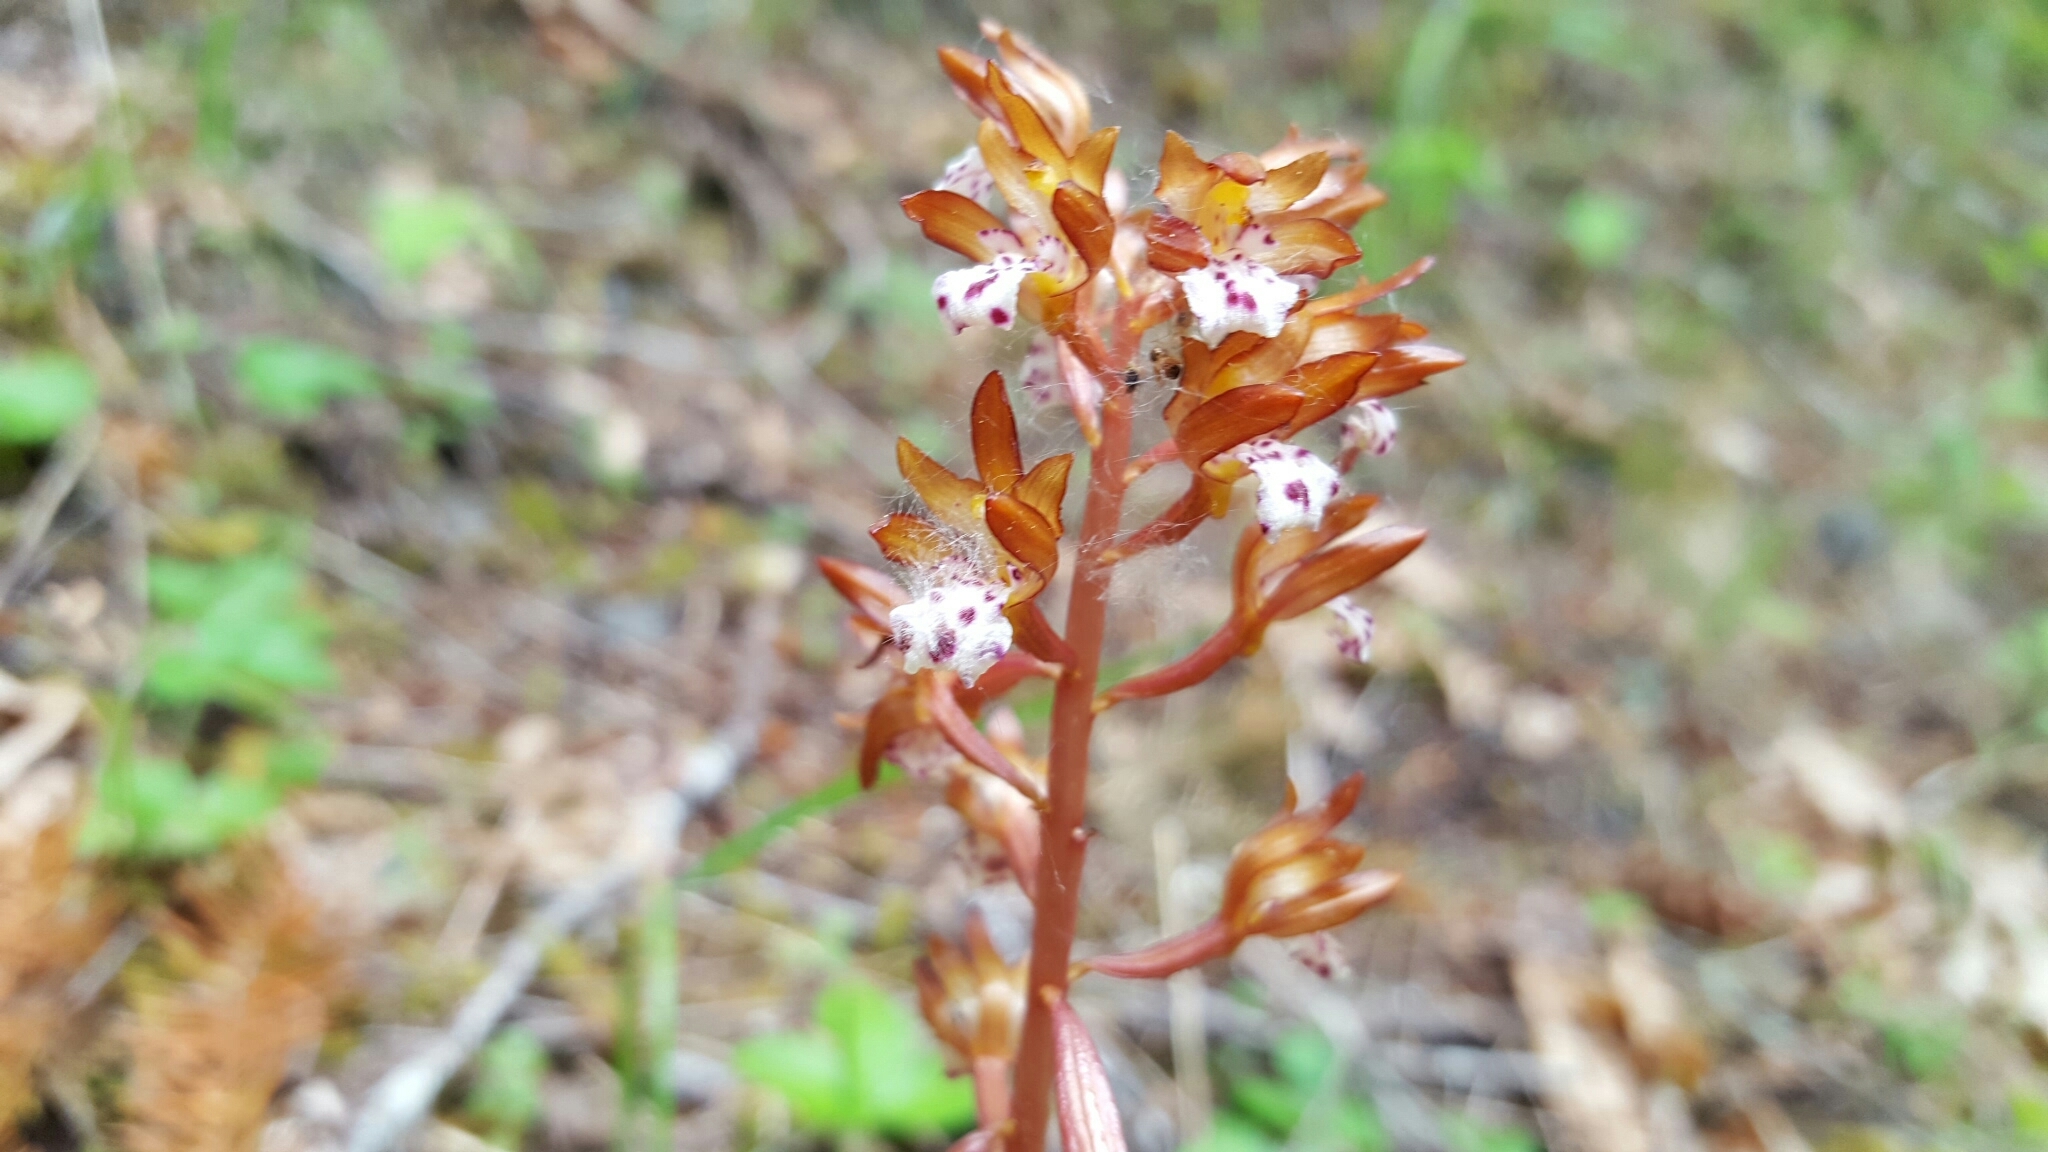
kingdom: Plantae
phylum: Tracheophyta
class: Liliopsida
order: Asparagales
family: Orchidaceae
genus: Corallorhiza
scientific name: Corallorhiza maculata
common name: Spotted coralroot
